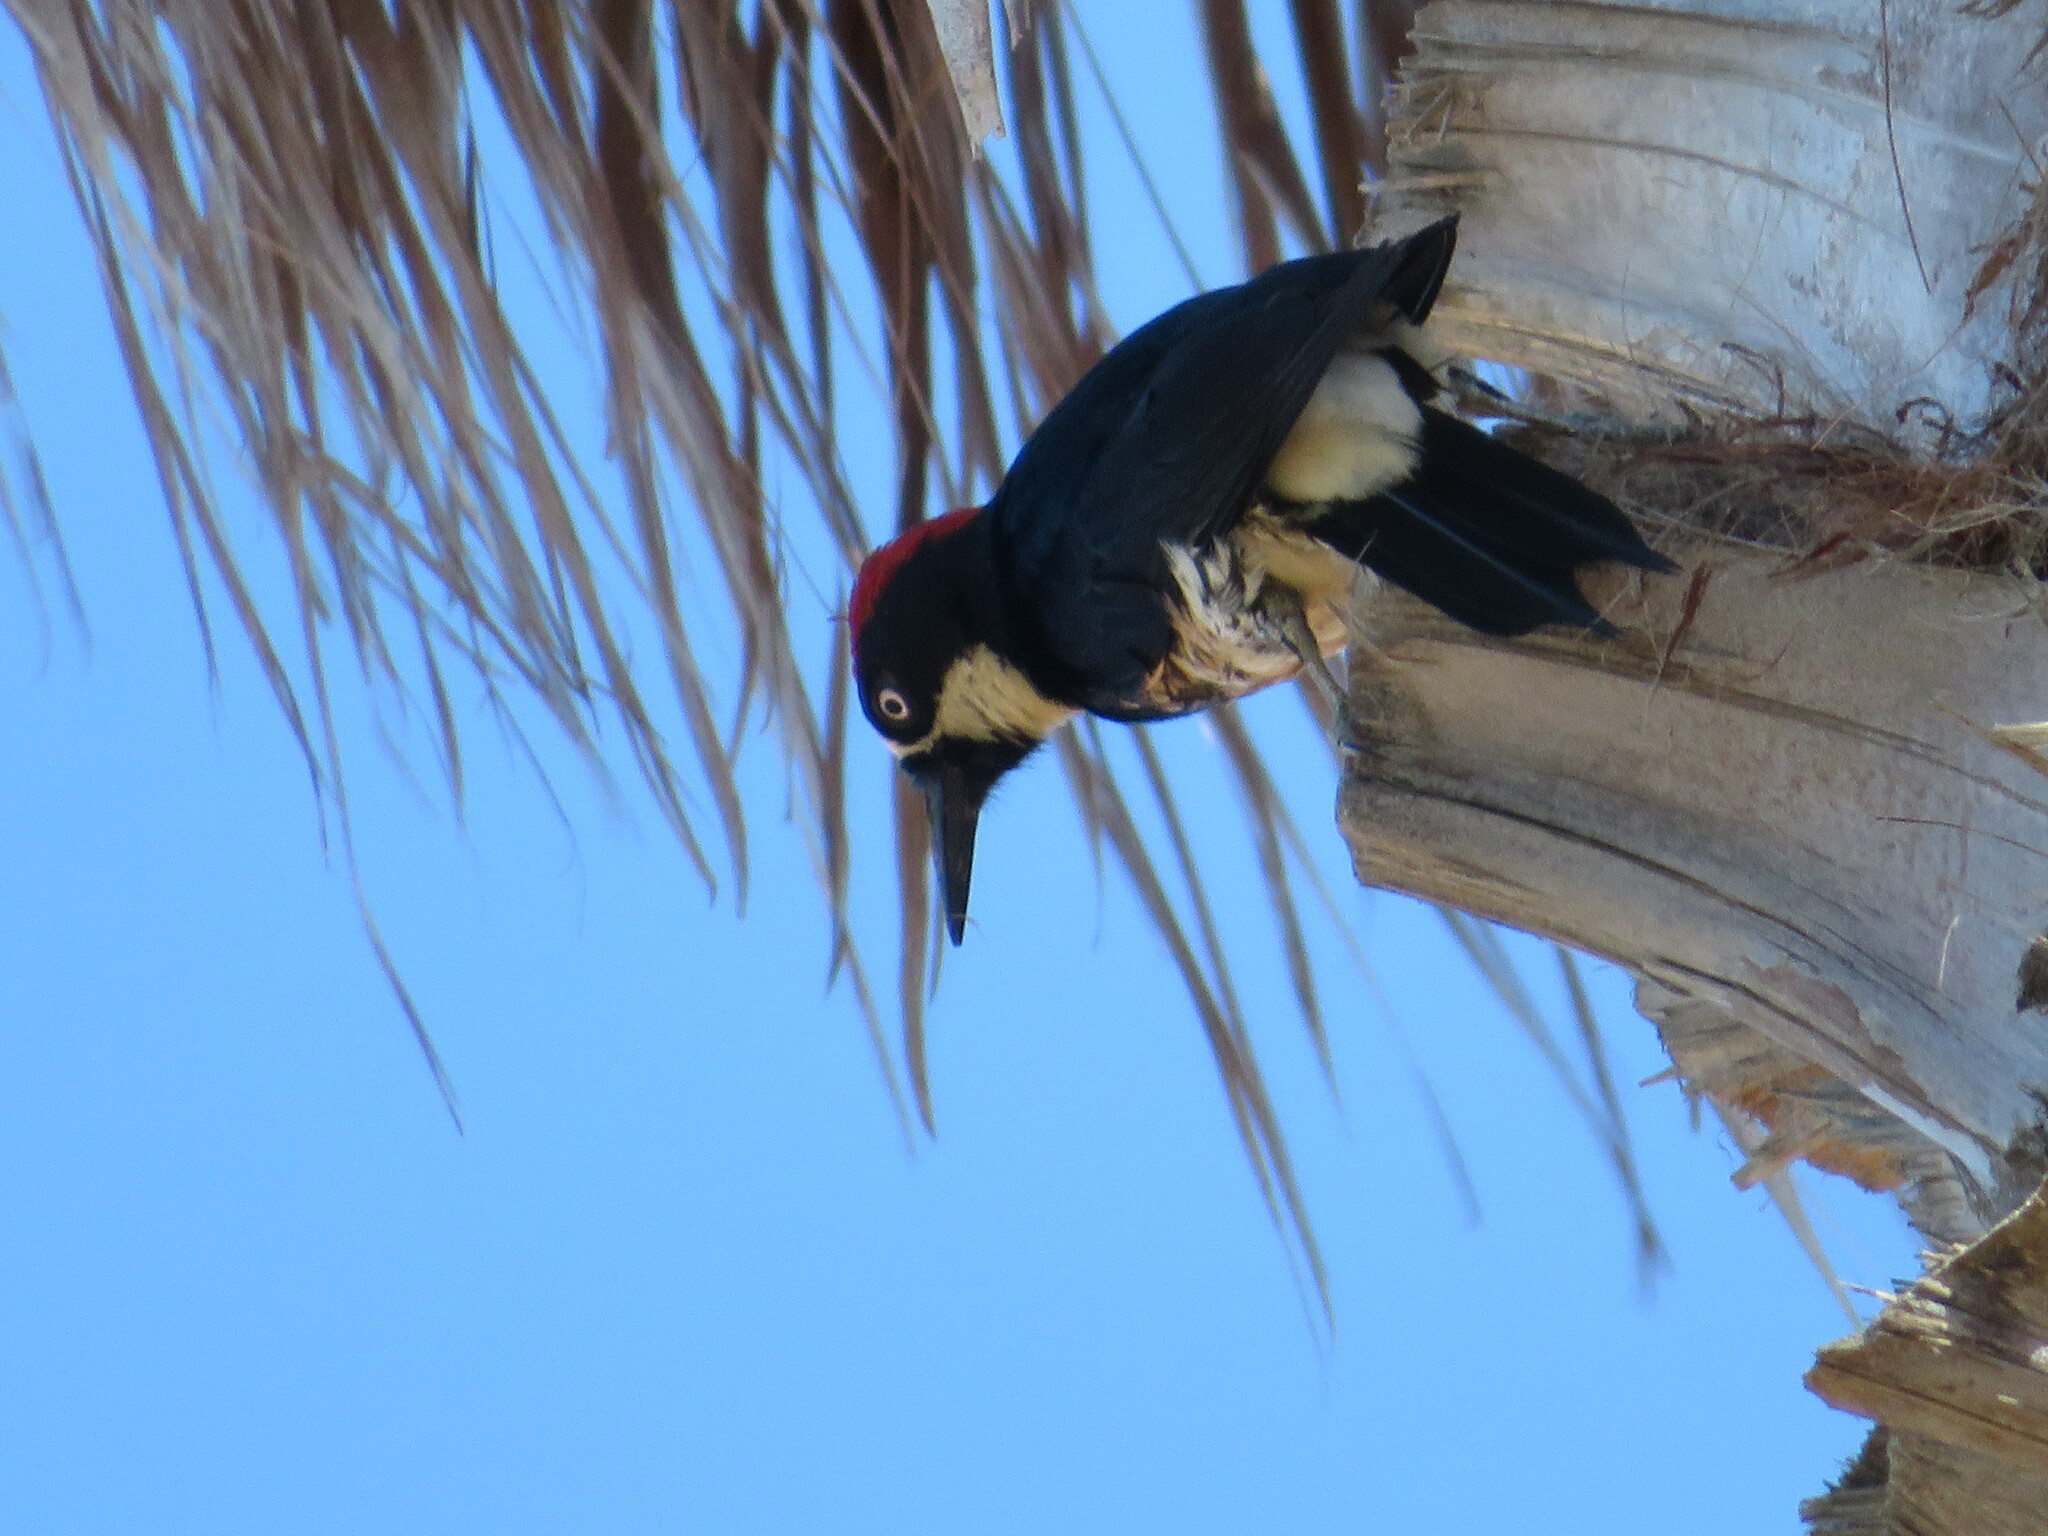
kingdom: Animalia
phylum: Chordata
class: Aves
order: Piciformes
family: Picidae
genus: Melanerpes
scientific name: Melanerpes formicivorus
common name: Acorn woodpecker
